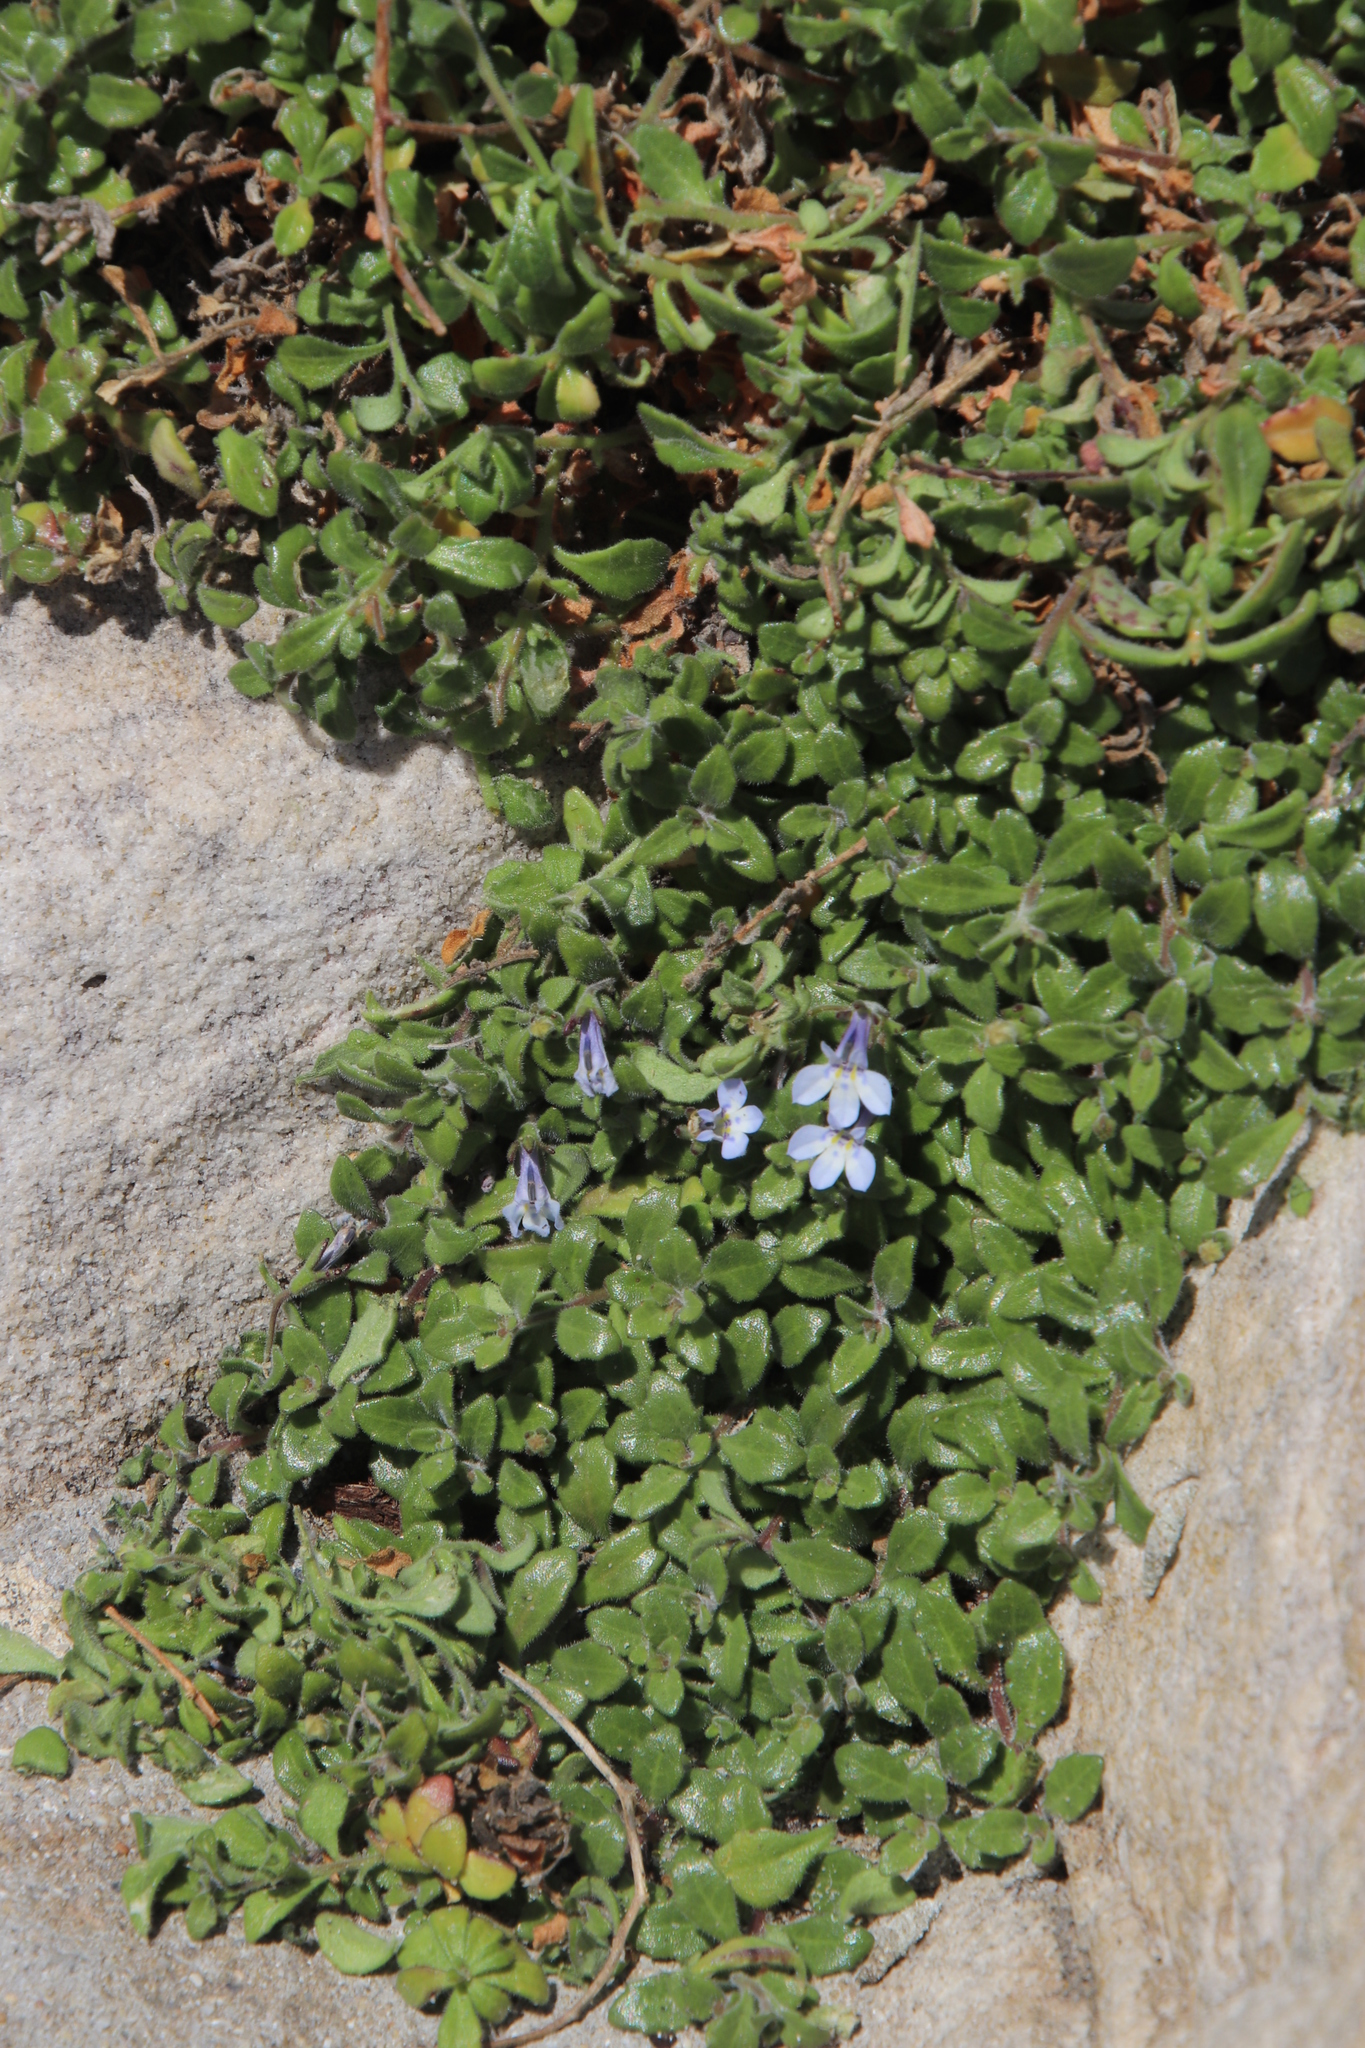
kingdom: Plantae
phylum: Tracheophyta
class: Magnoliopsida
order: Asterales
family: Campanulaceae
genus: Lobelia
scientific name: Lobelia boivinii
